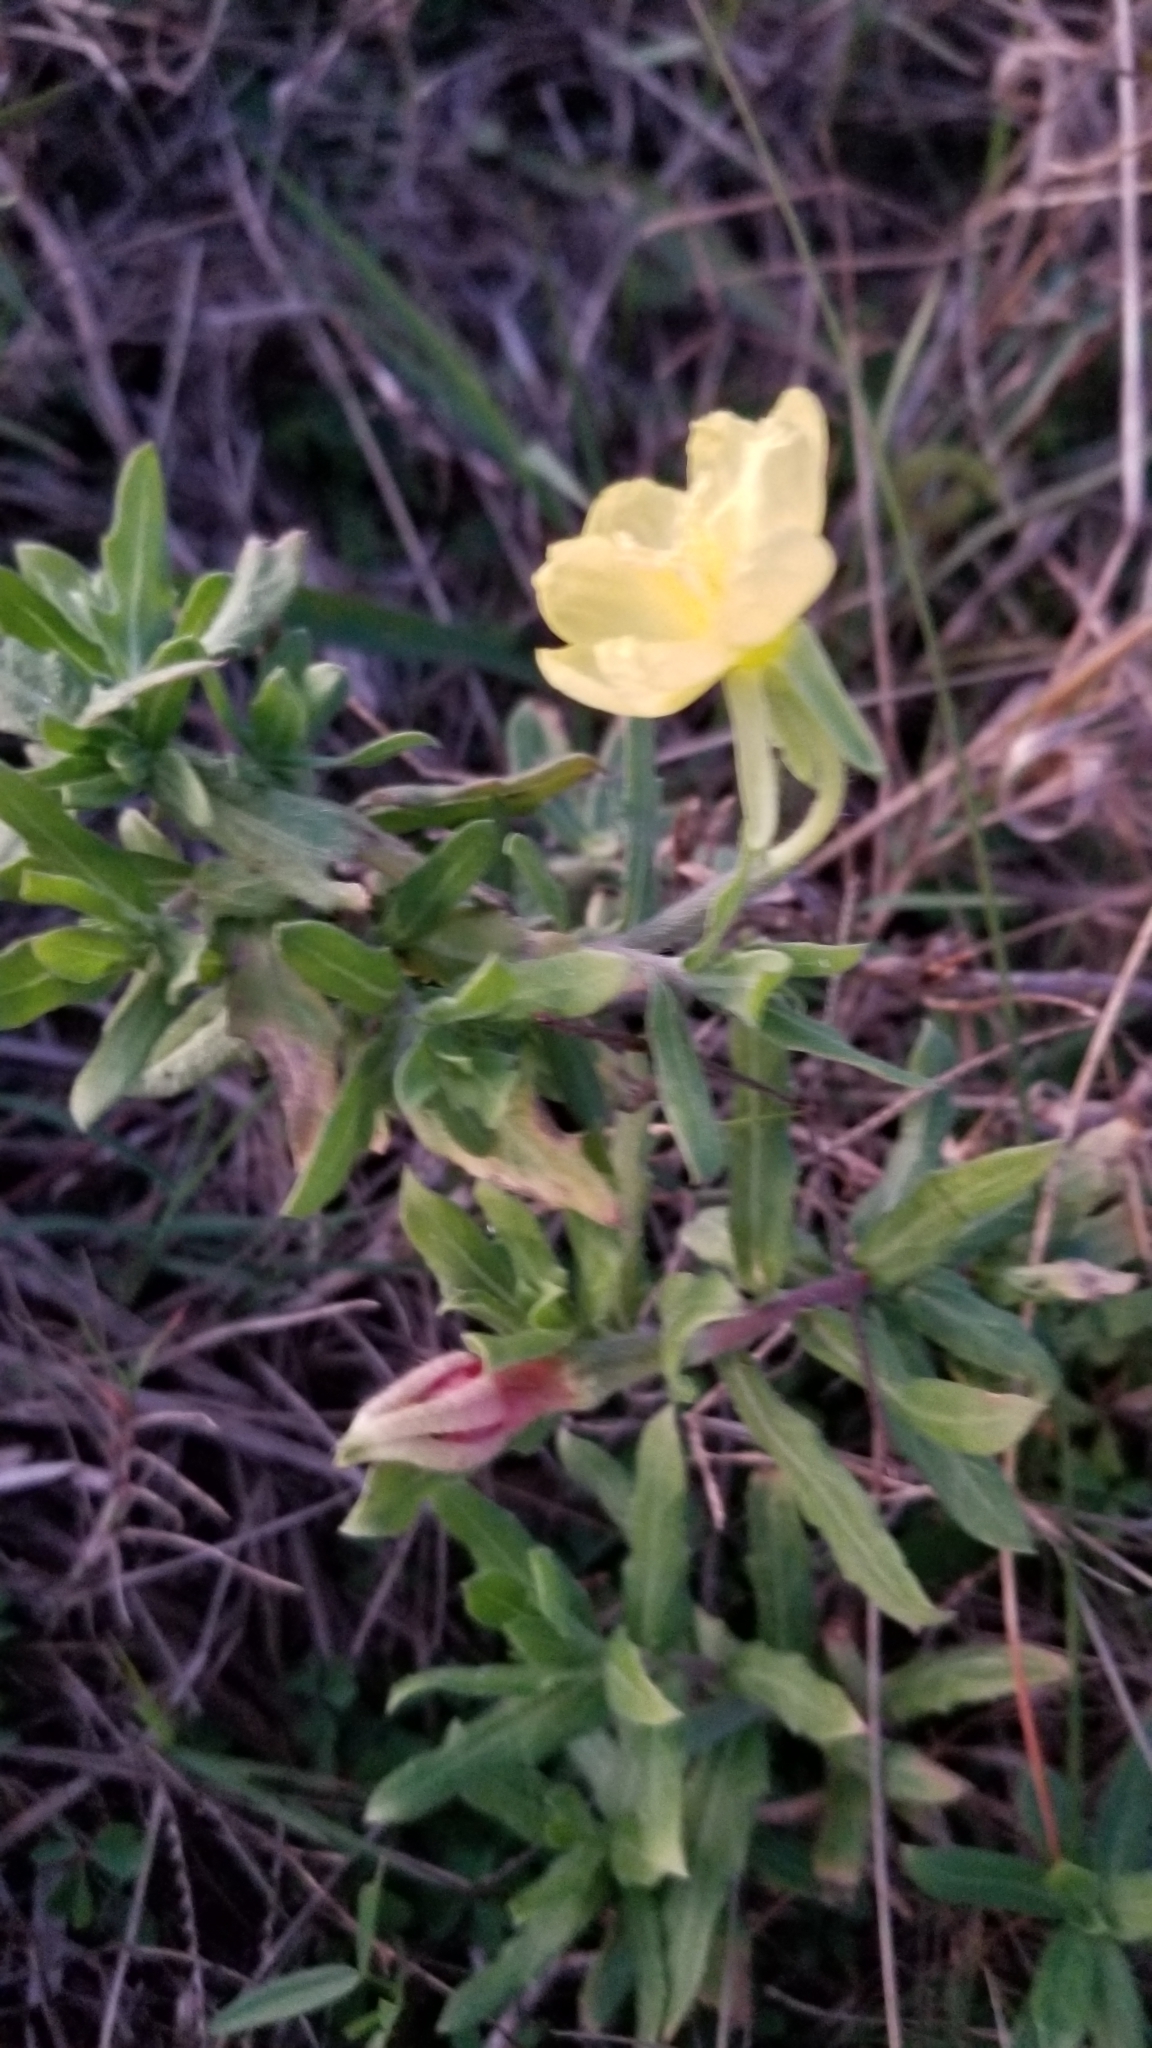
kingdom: Plantae
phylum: Tracheophyta
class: Magnoliopsida
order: Myrtales
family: Onagraceae
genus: Oenothera
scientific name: Oenothera laciniata
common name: Cut-leaved evening-primrose
